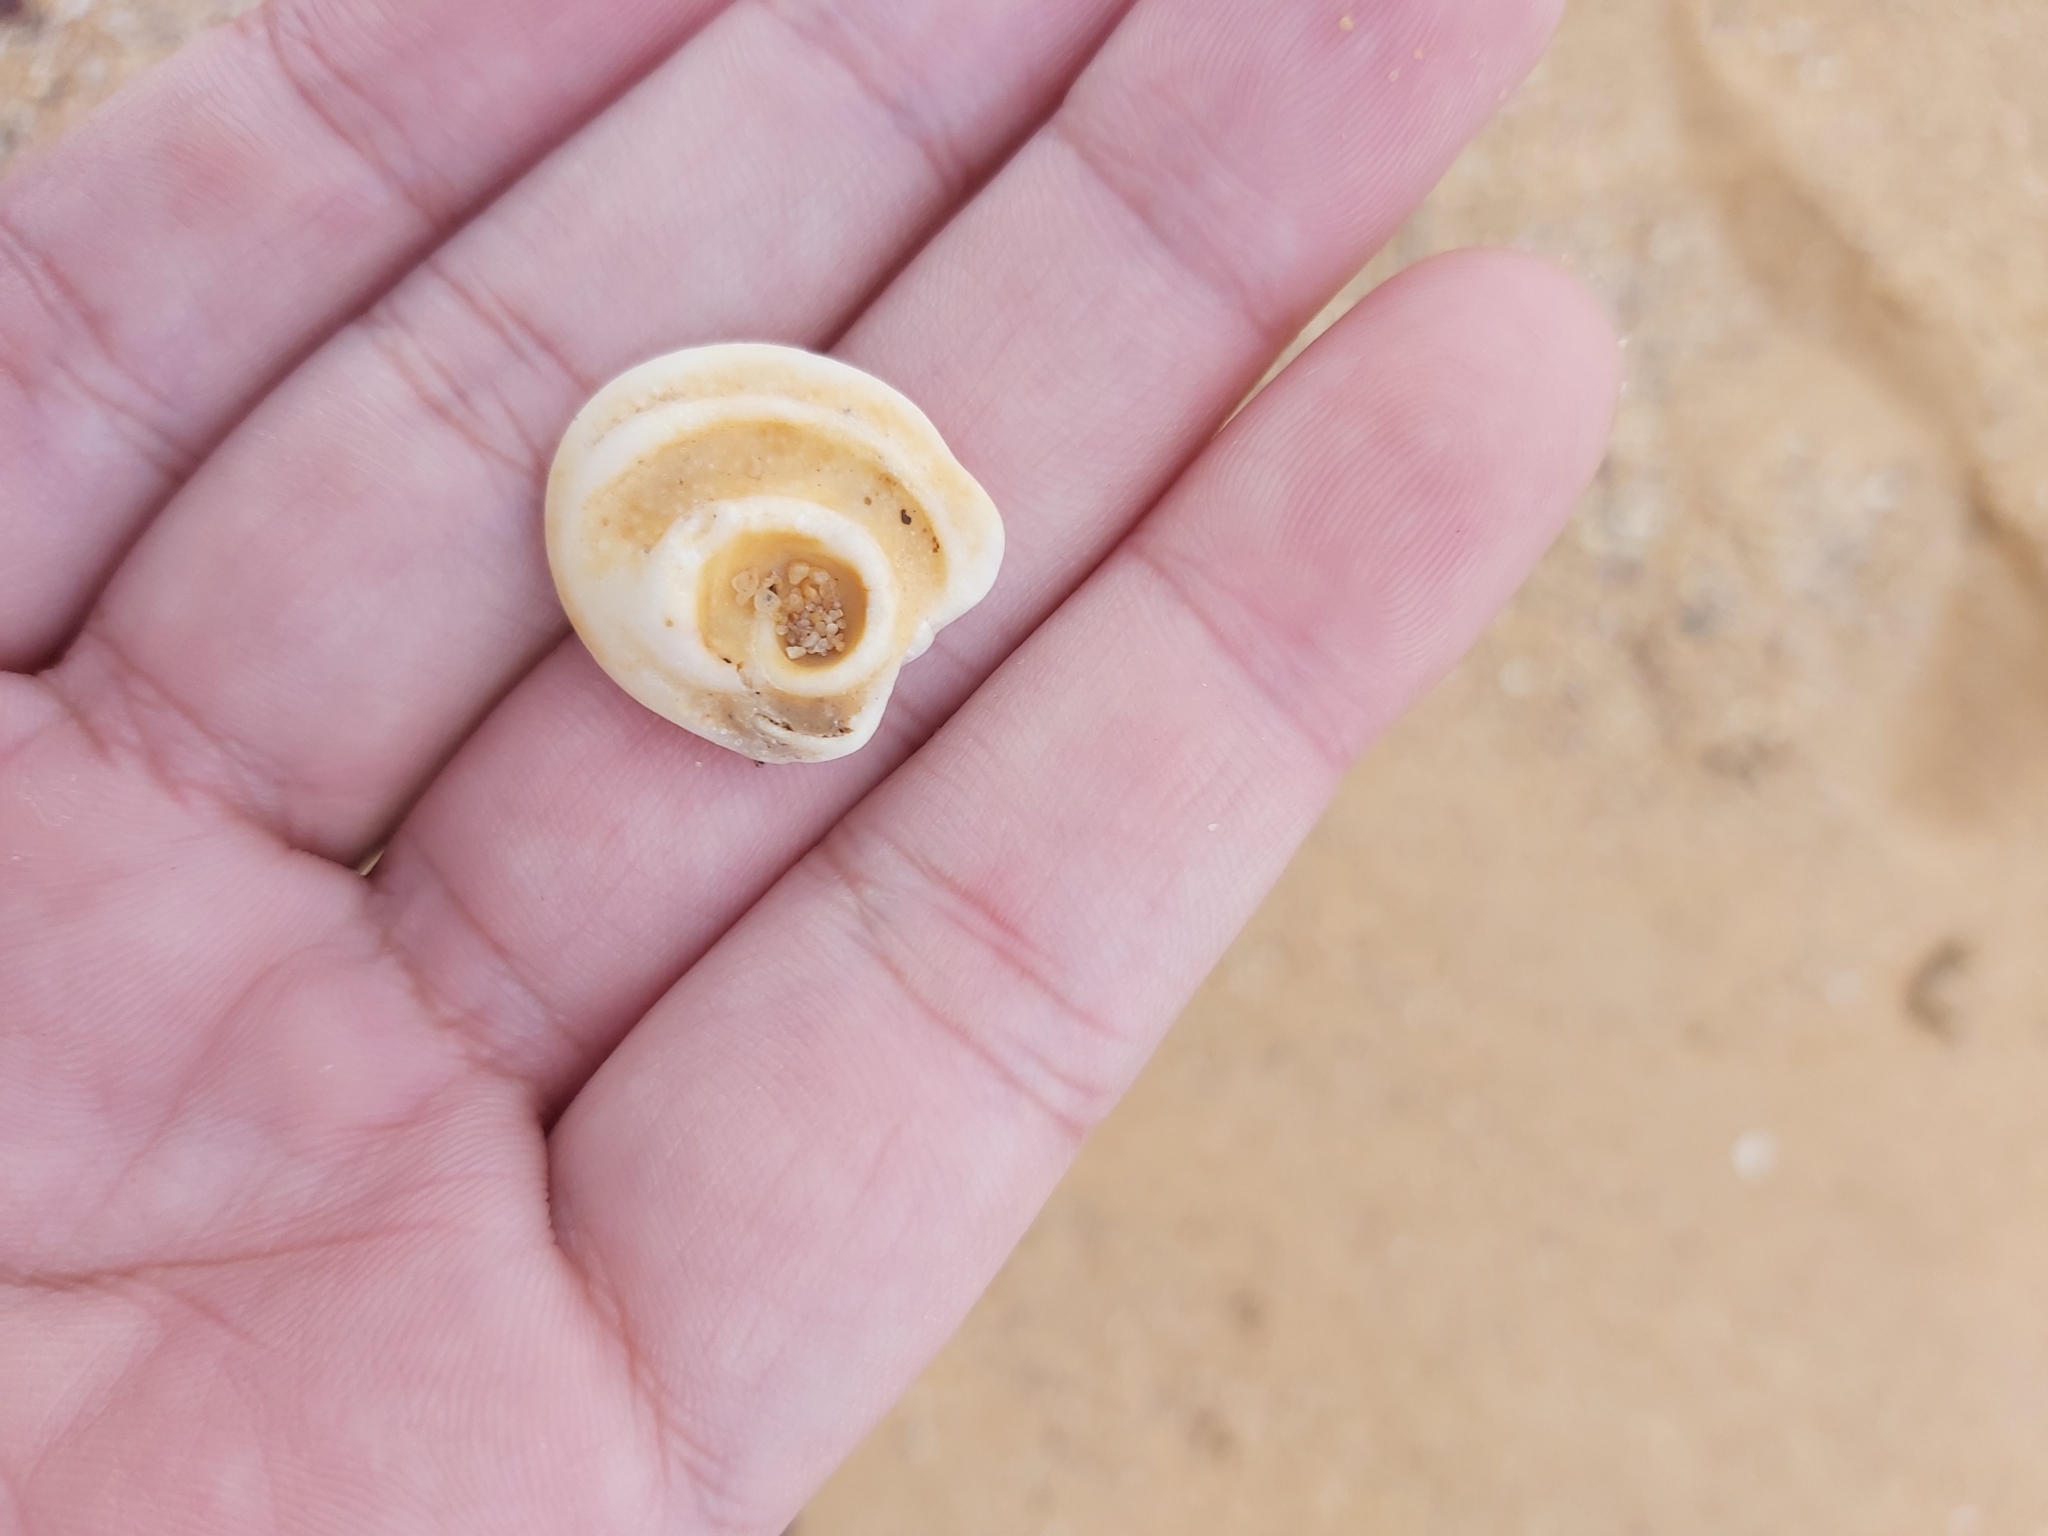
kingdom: Animalia
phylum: Mollusca
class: Gastropoda
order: Trochida
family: Turbinidae
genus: Lunella
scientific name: Lunella torquata
